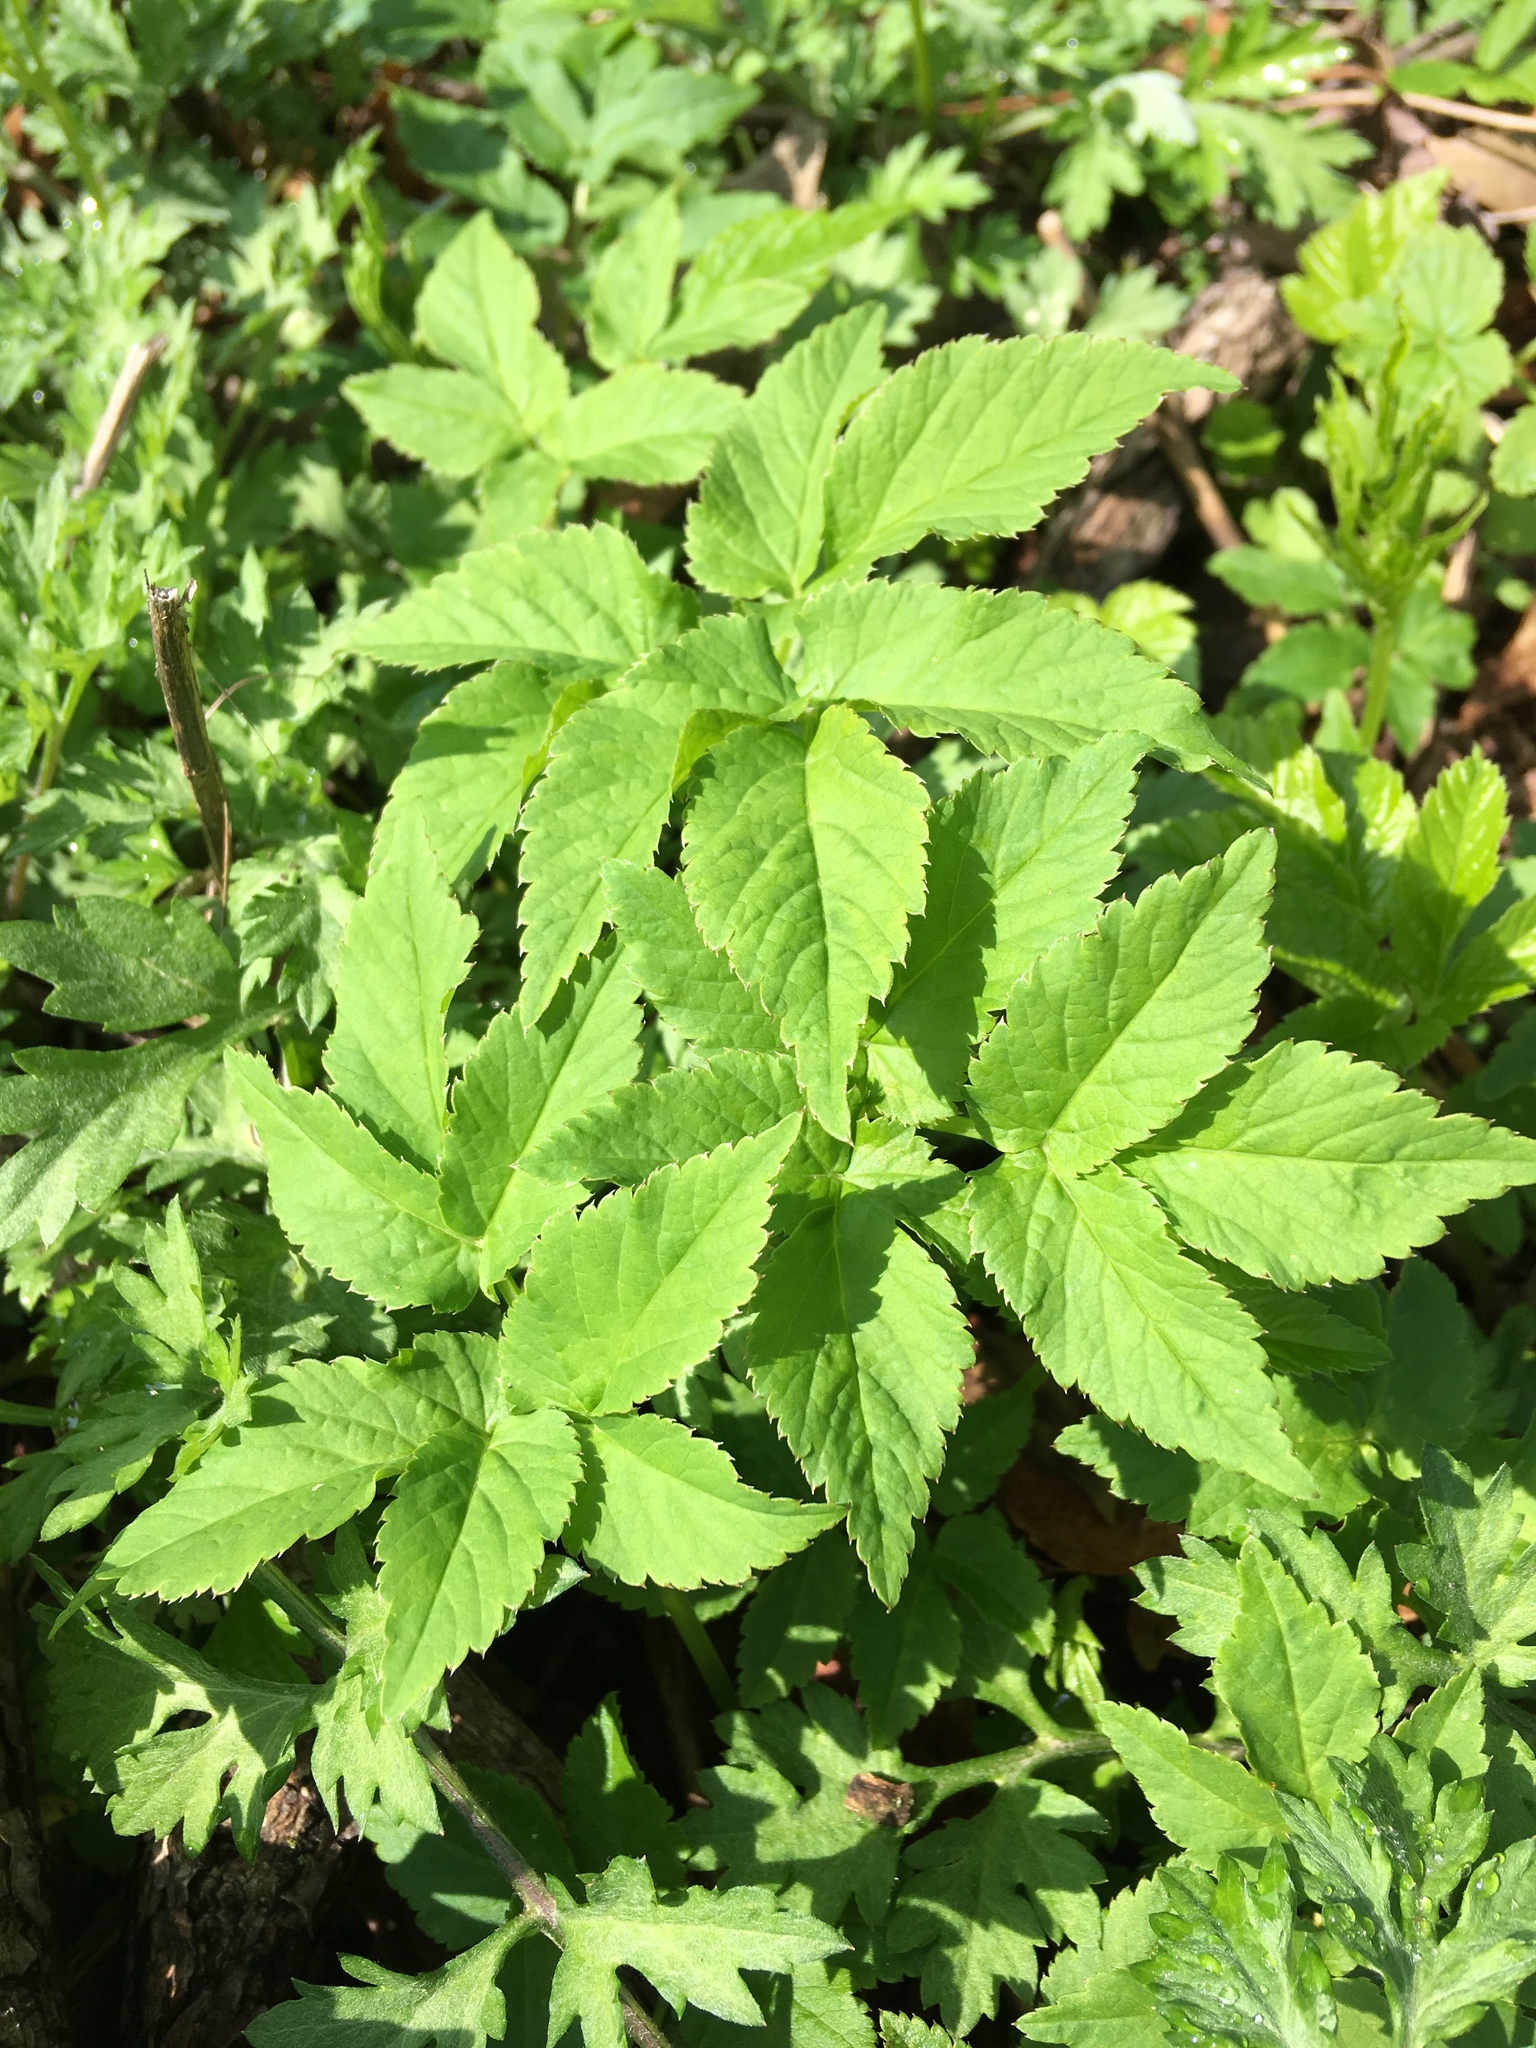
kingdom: Plantae
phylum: Tracheophyta
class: Magnoliopsida
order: Apiales
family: Apiaceae
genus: Aegopodium
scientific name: Aegopodium podagraria
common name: Ground-elder
